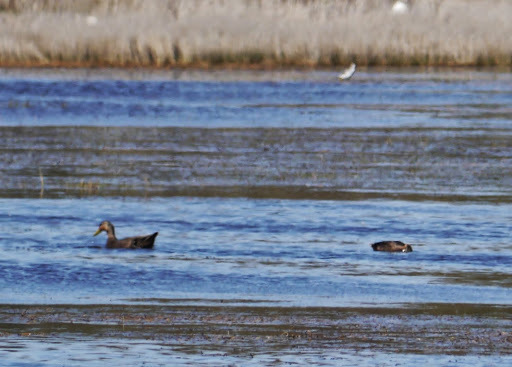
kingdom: Animalia
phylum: Chordata
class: Aves
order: Anseriformes
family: Anatidae
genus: Anas
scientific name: Anas rubripes
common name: American black duck
